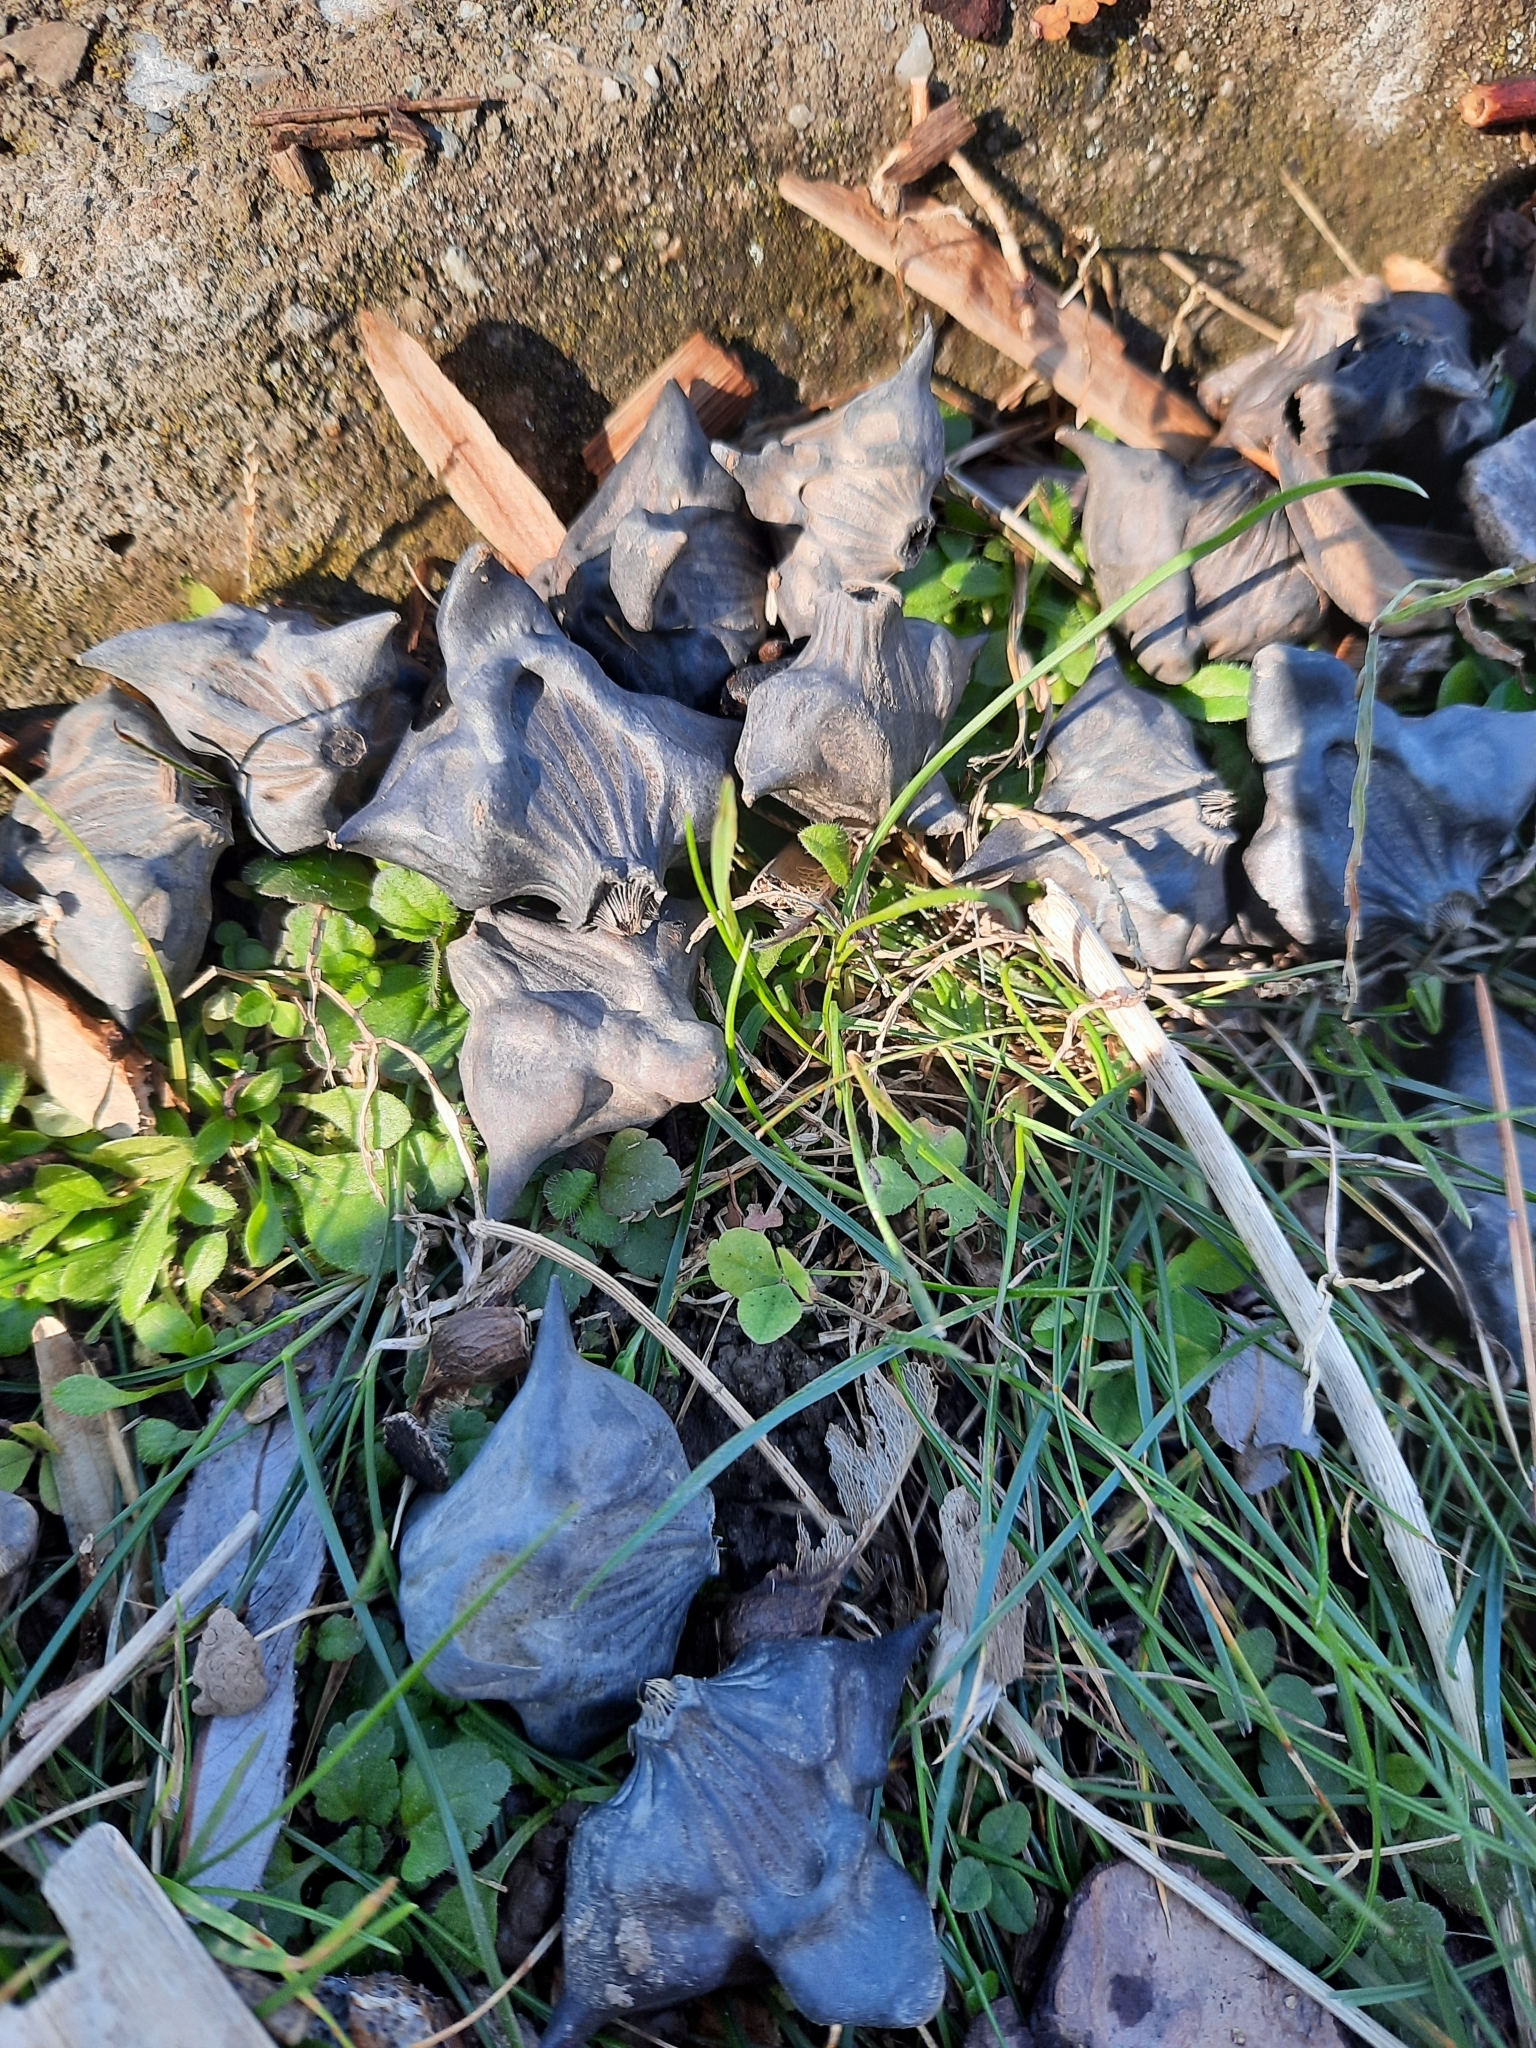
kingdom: Plantae
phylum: Tracheophyta
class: Magnoliopsida
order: Myrtales
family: Lythraceae
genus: Trapa
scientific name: Trapa natans
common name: Water chestnut
